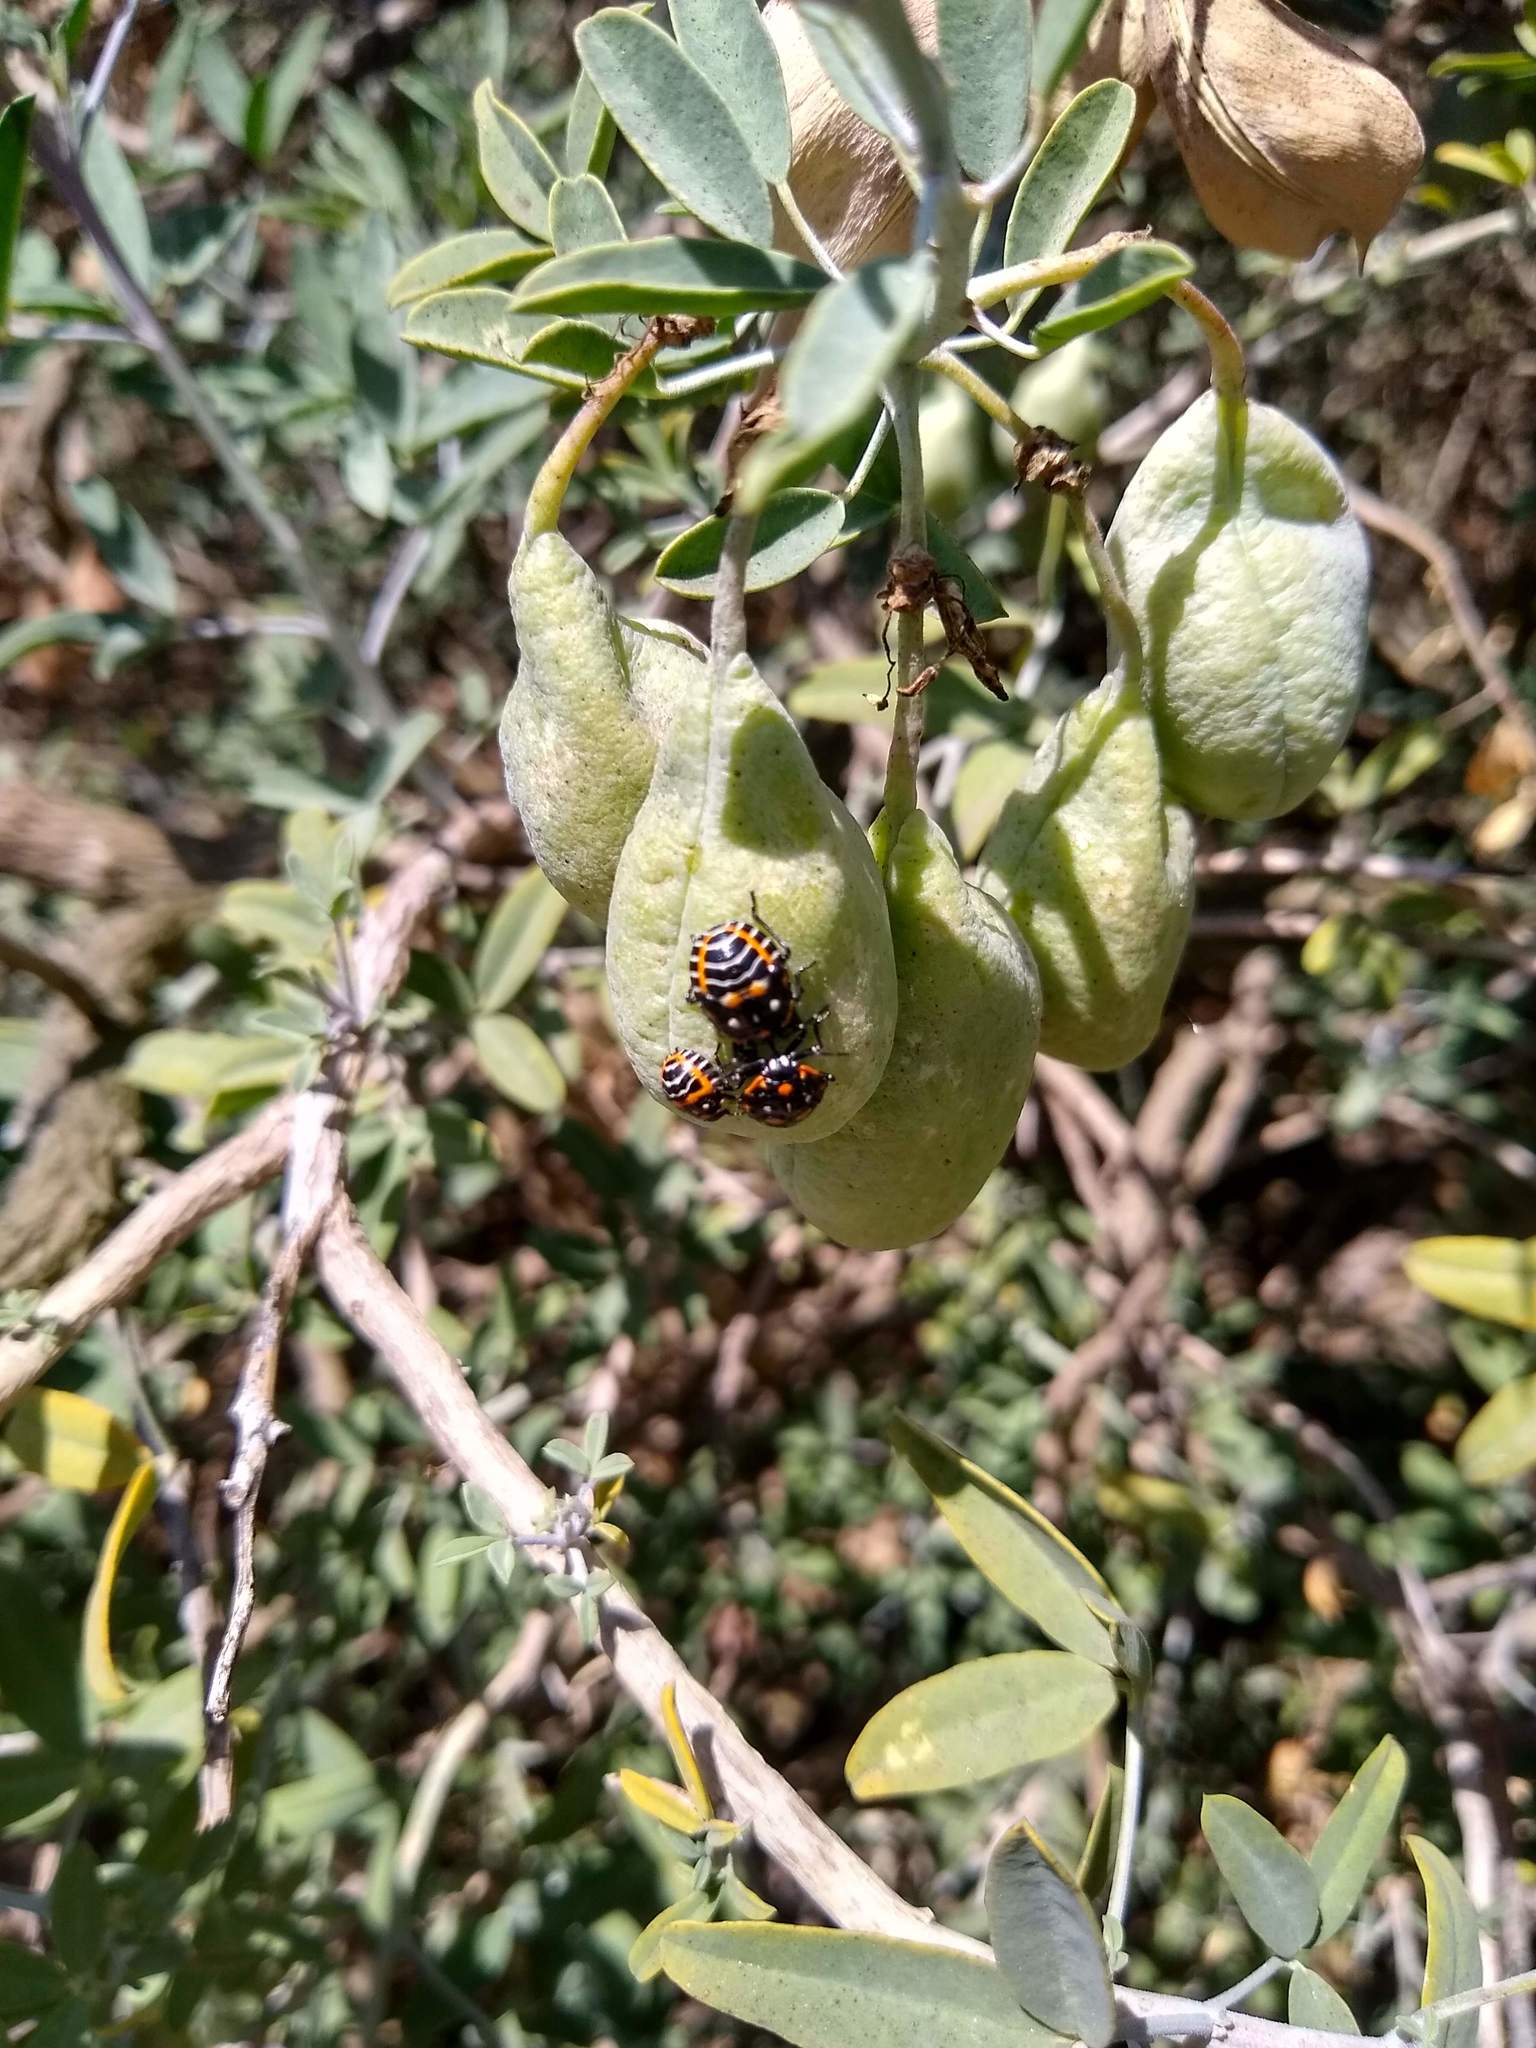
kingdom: Animalia
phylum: Arthropoda
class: Insecta
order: Hemiptera
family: Pentatomidae
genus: Murgantia
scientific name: Murgantia histrionica
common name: Harlequin bug
